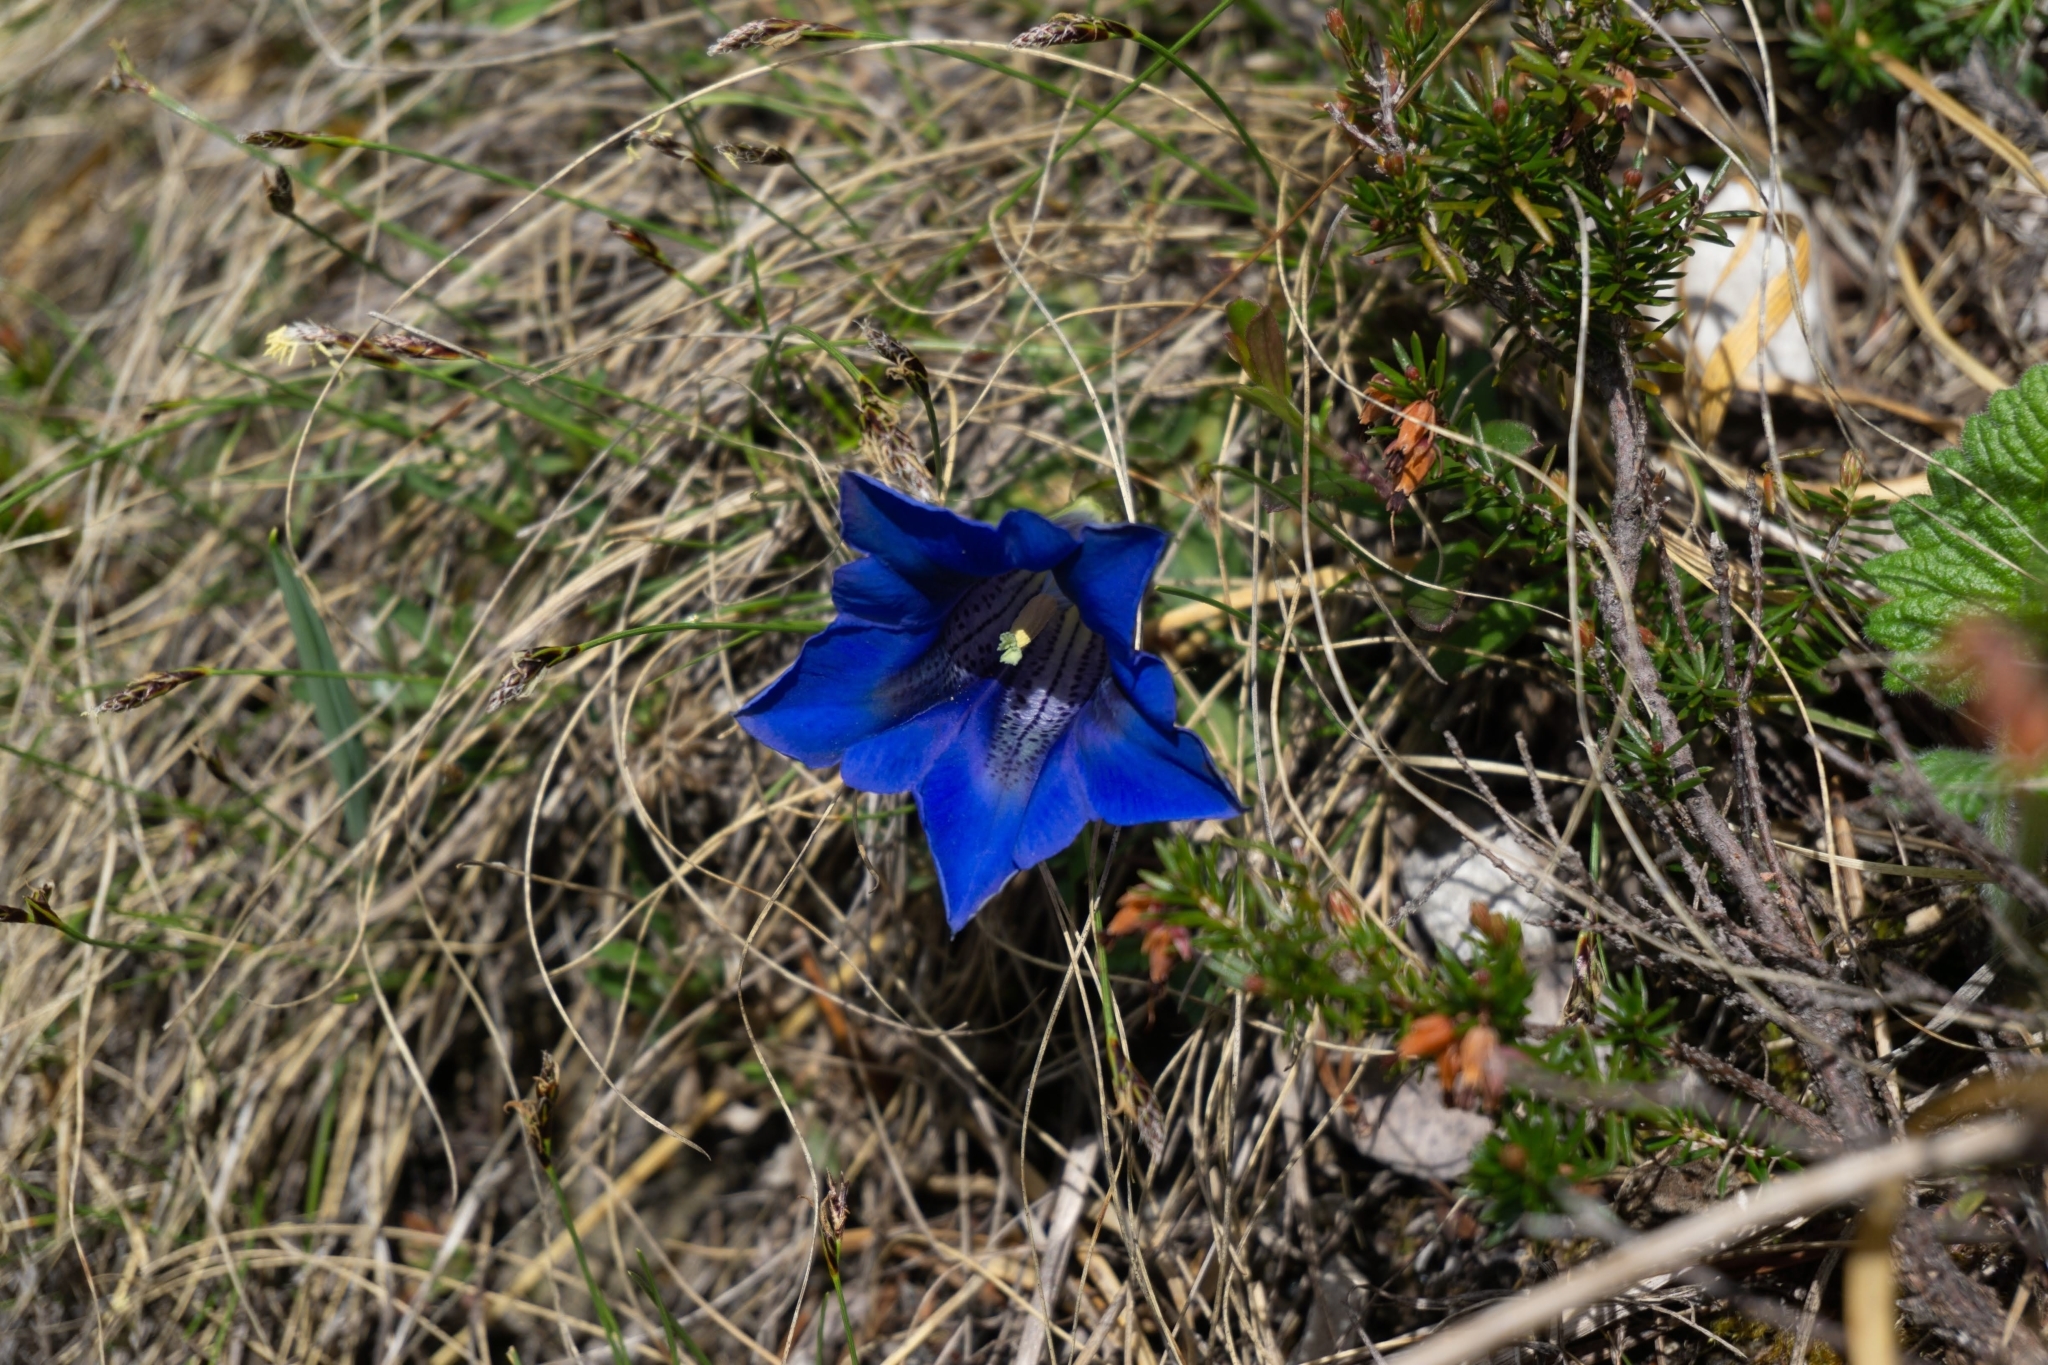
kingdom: Plantae
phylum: Tracheophyta
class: Magnoliopsida
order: Gentianales
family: Gentianaceae
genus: Gentiana
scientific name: Gentiana clusii
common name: Trumpet gentian
